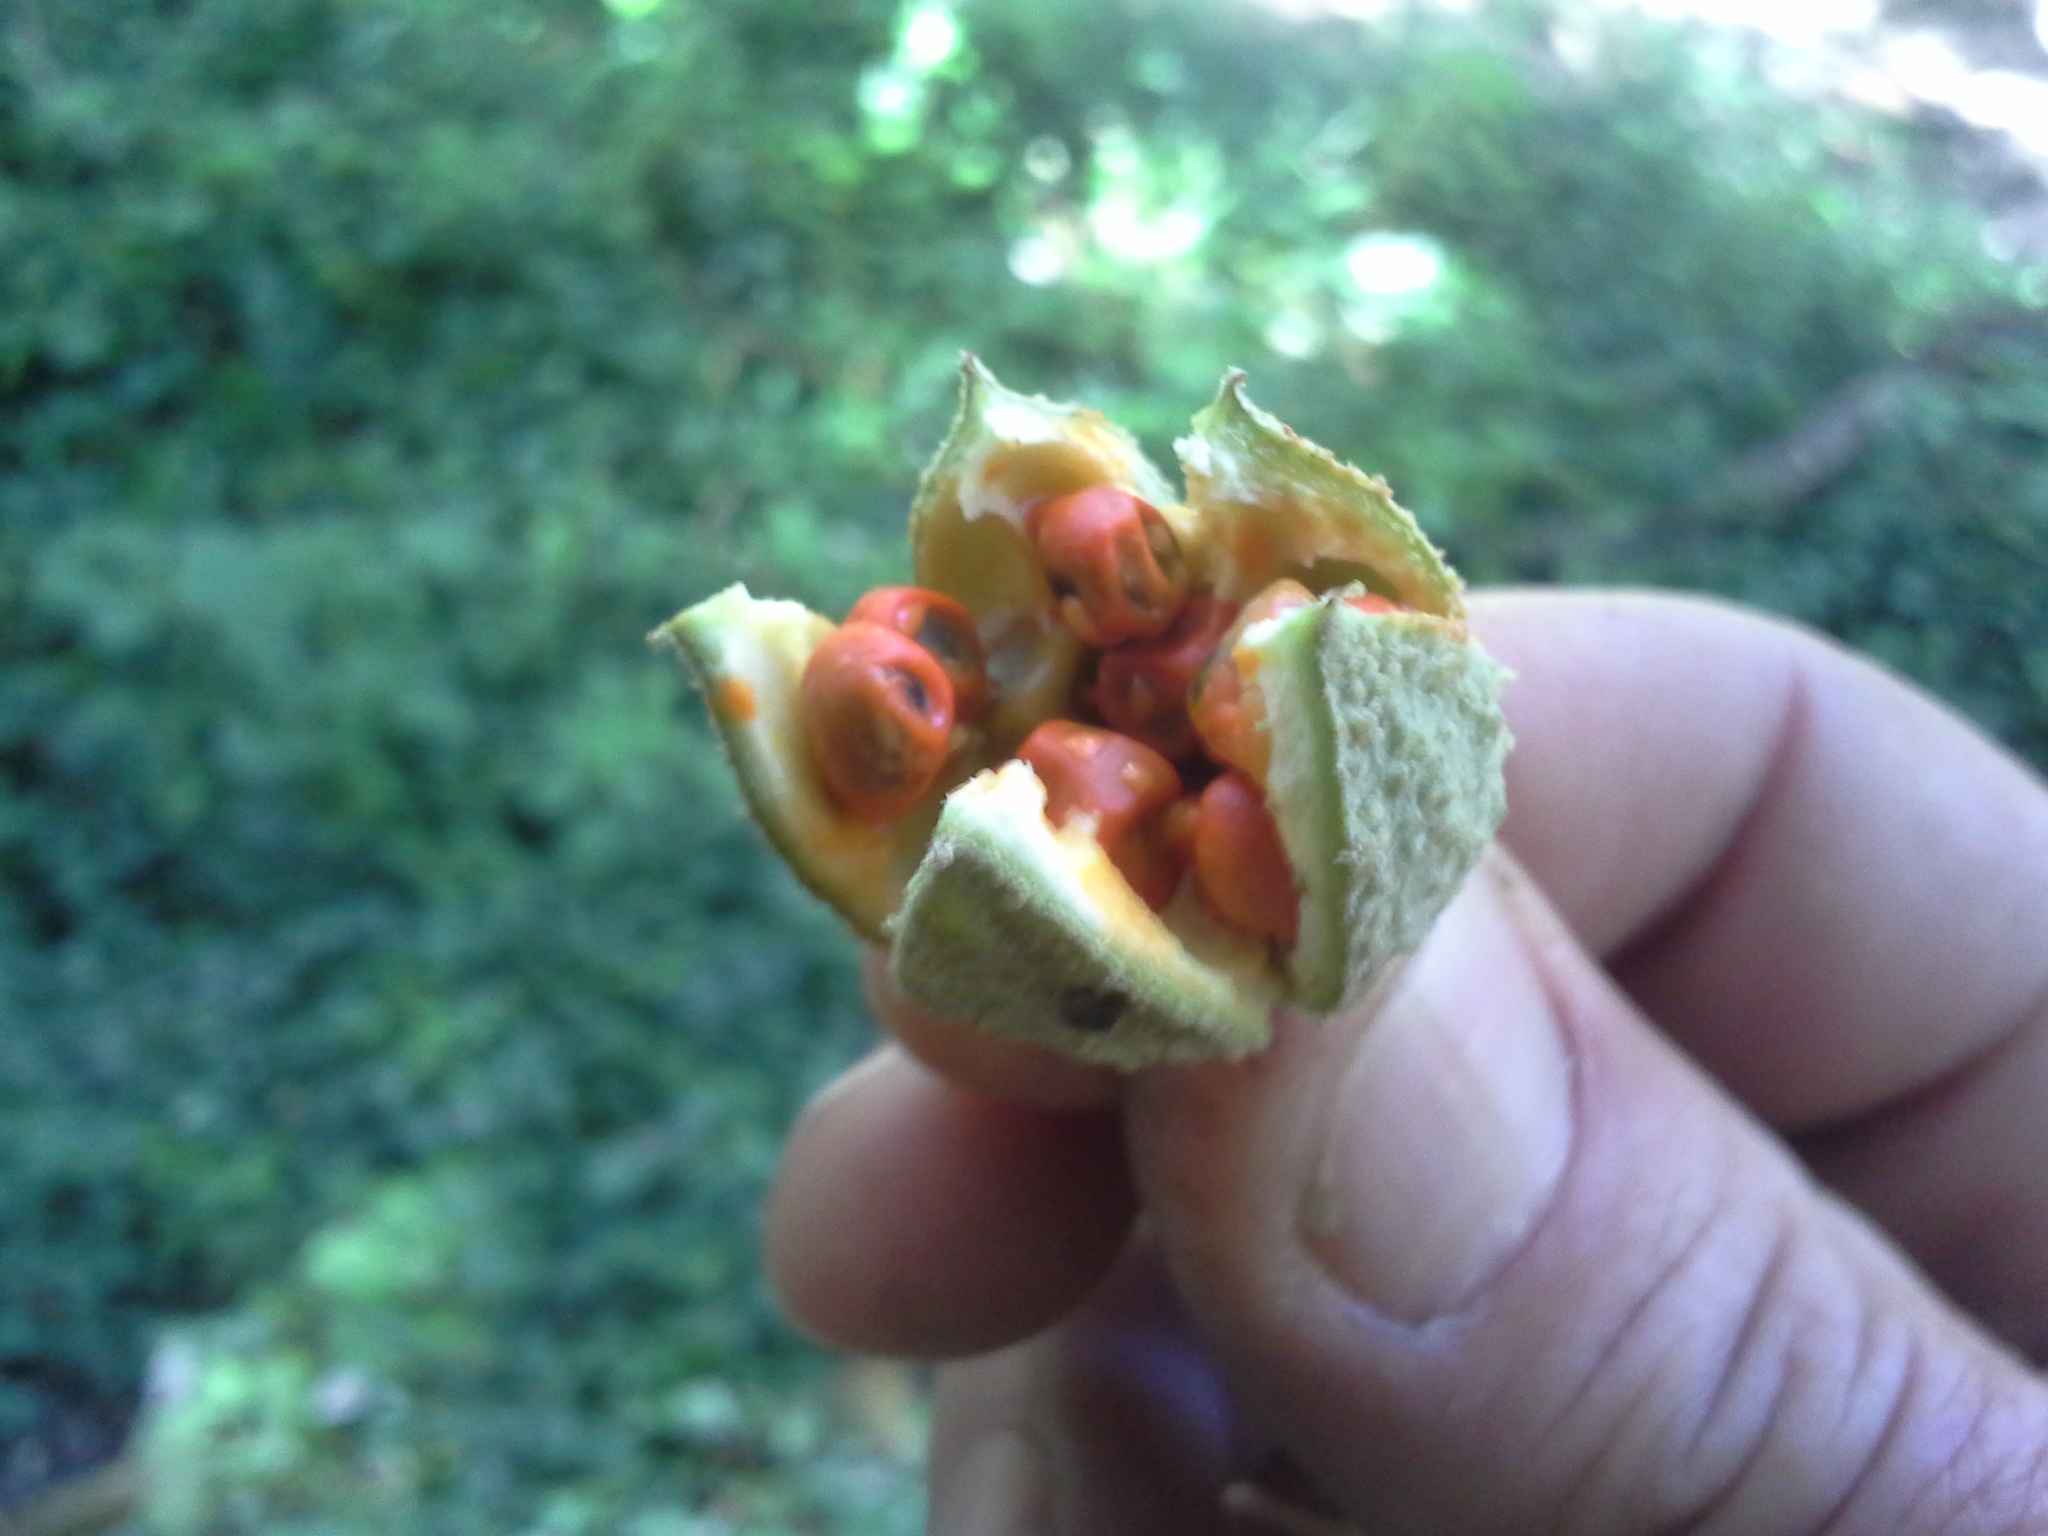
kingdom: Plantae
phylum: Tracheophyta
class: Magnoliopsida
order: Malpighiales
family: Achariaceae
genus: Kiggelaria
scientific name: Kiggelaria africana
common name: Wild peach
